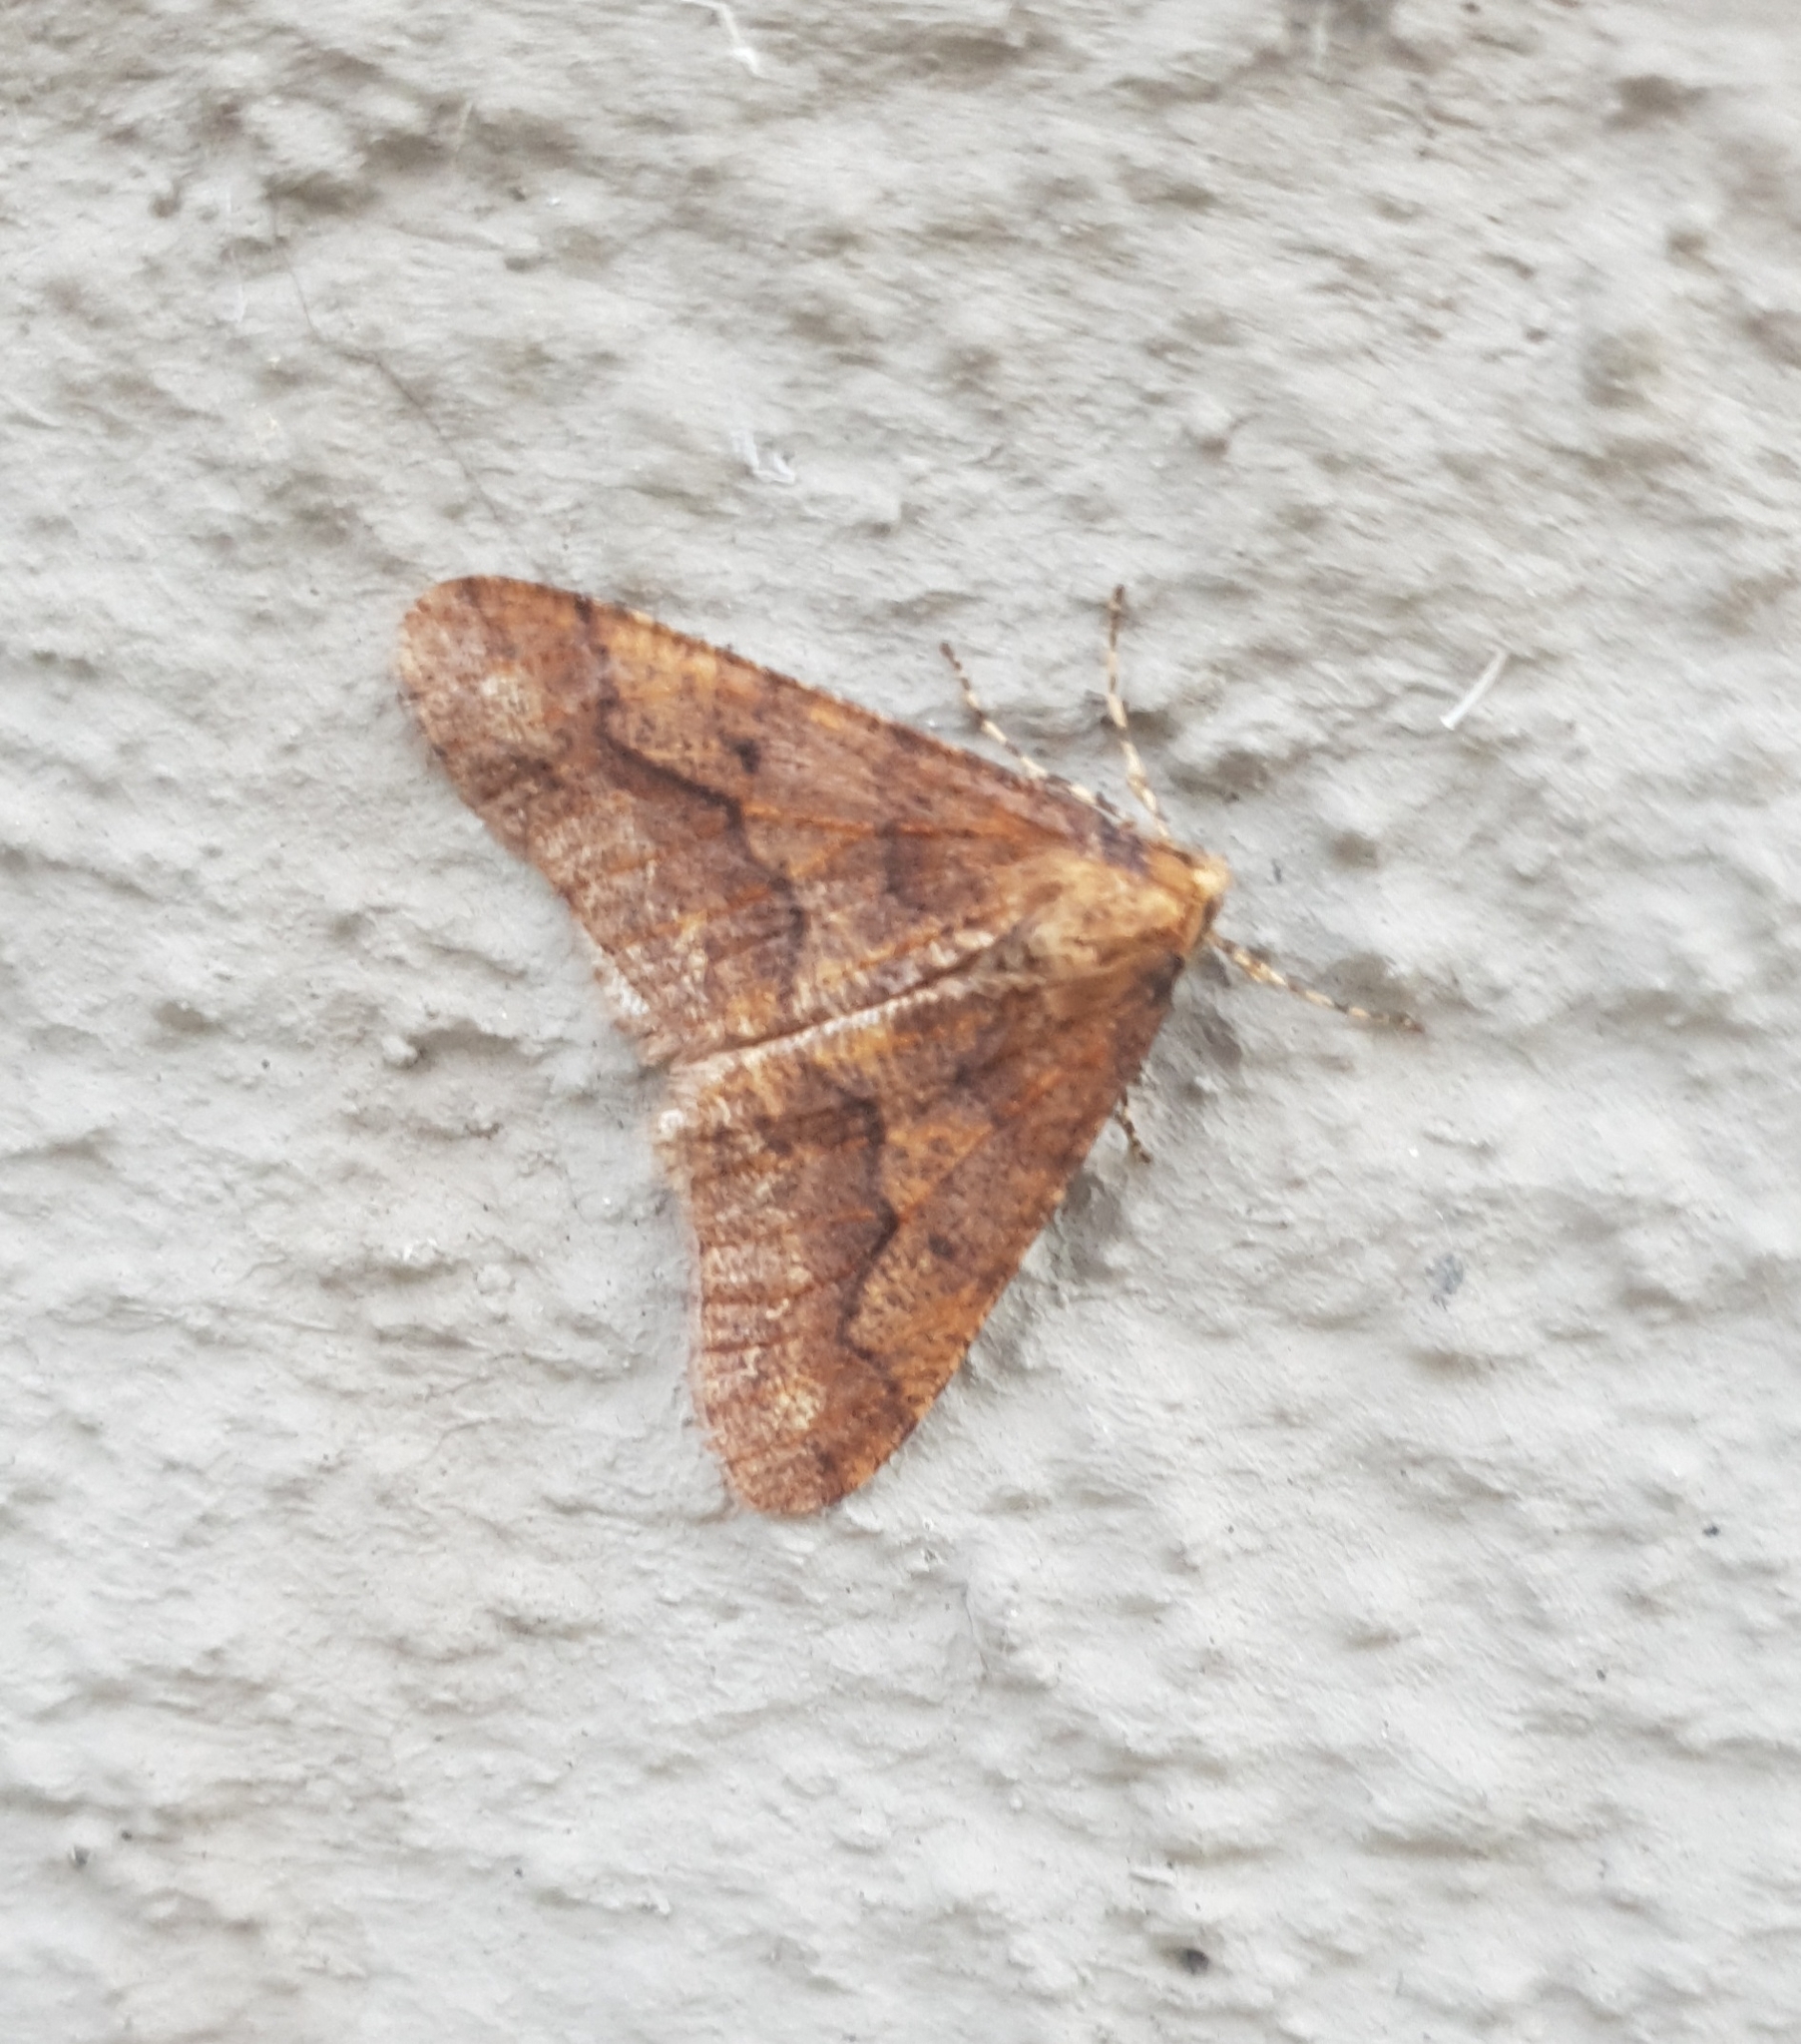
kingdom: Animalia
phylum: Arthropoda
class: Insecta
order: Lepidoptera
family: Geometridae
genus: Erannis
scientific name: Erannis defoliaria
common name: Mottled umber
